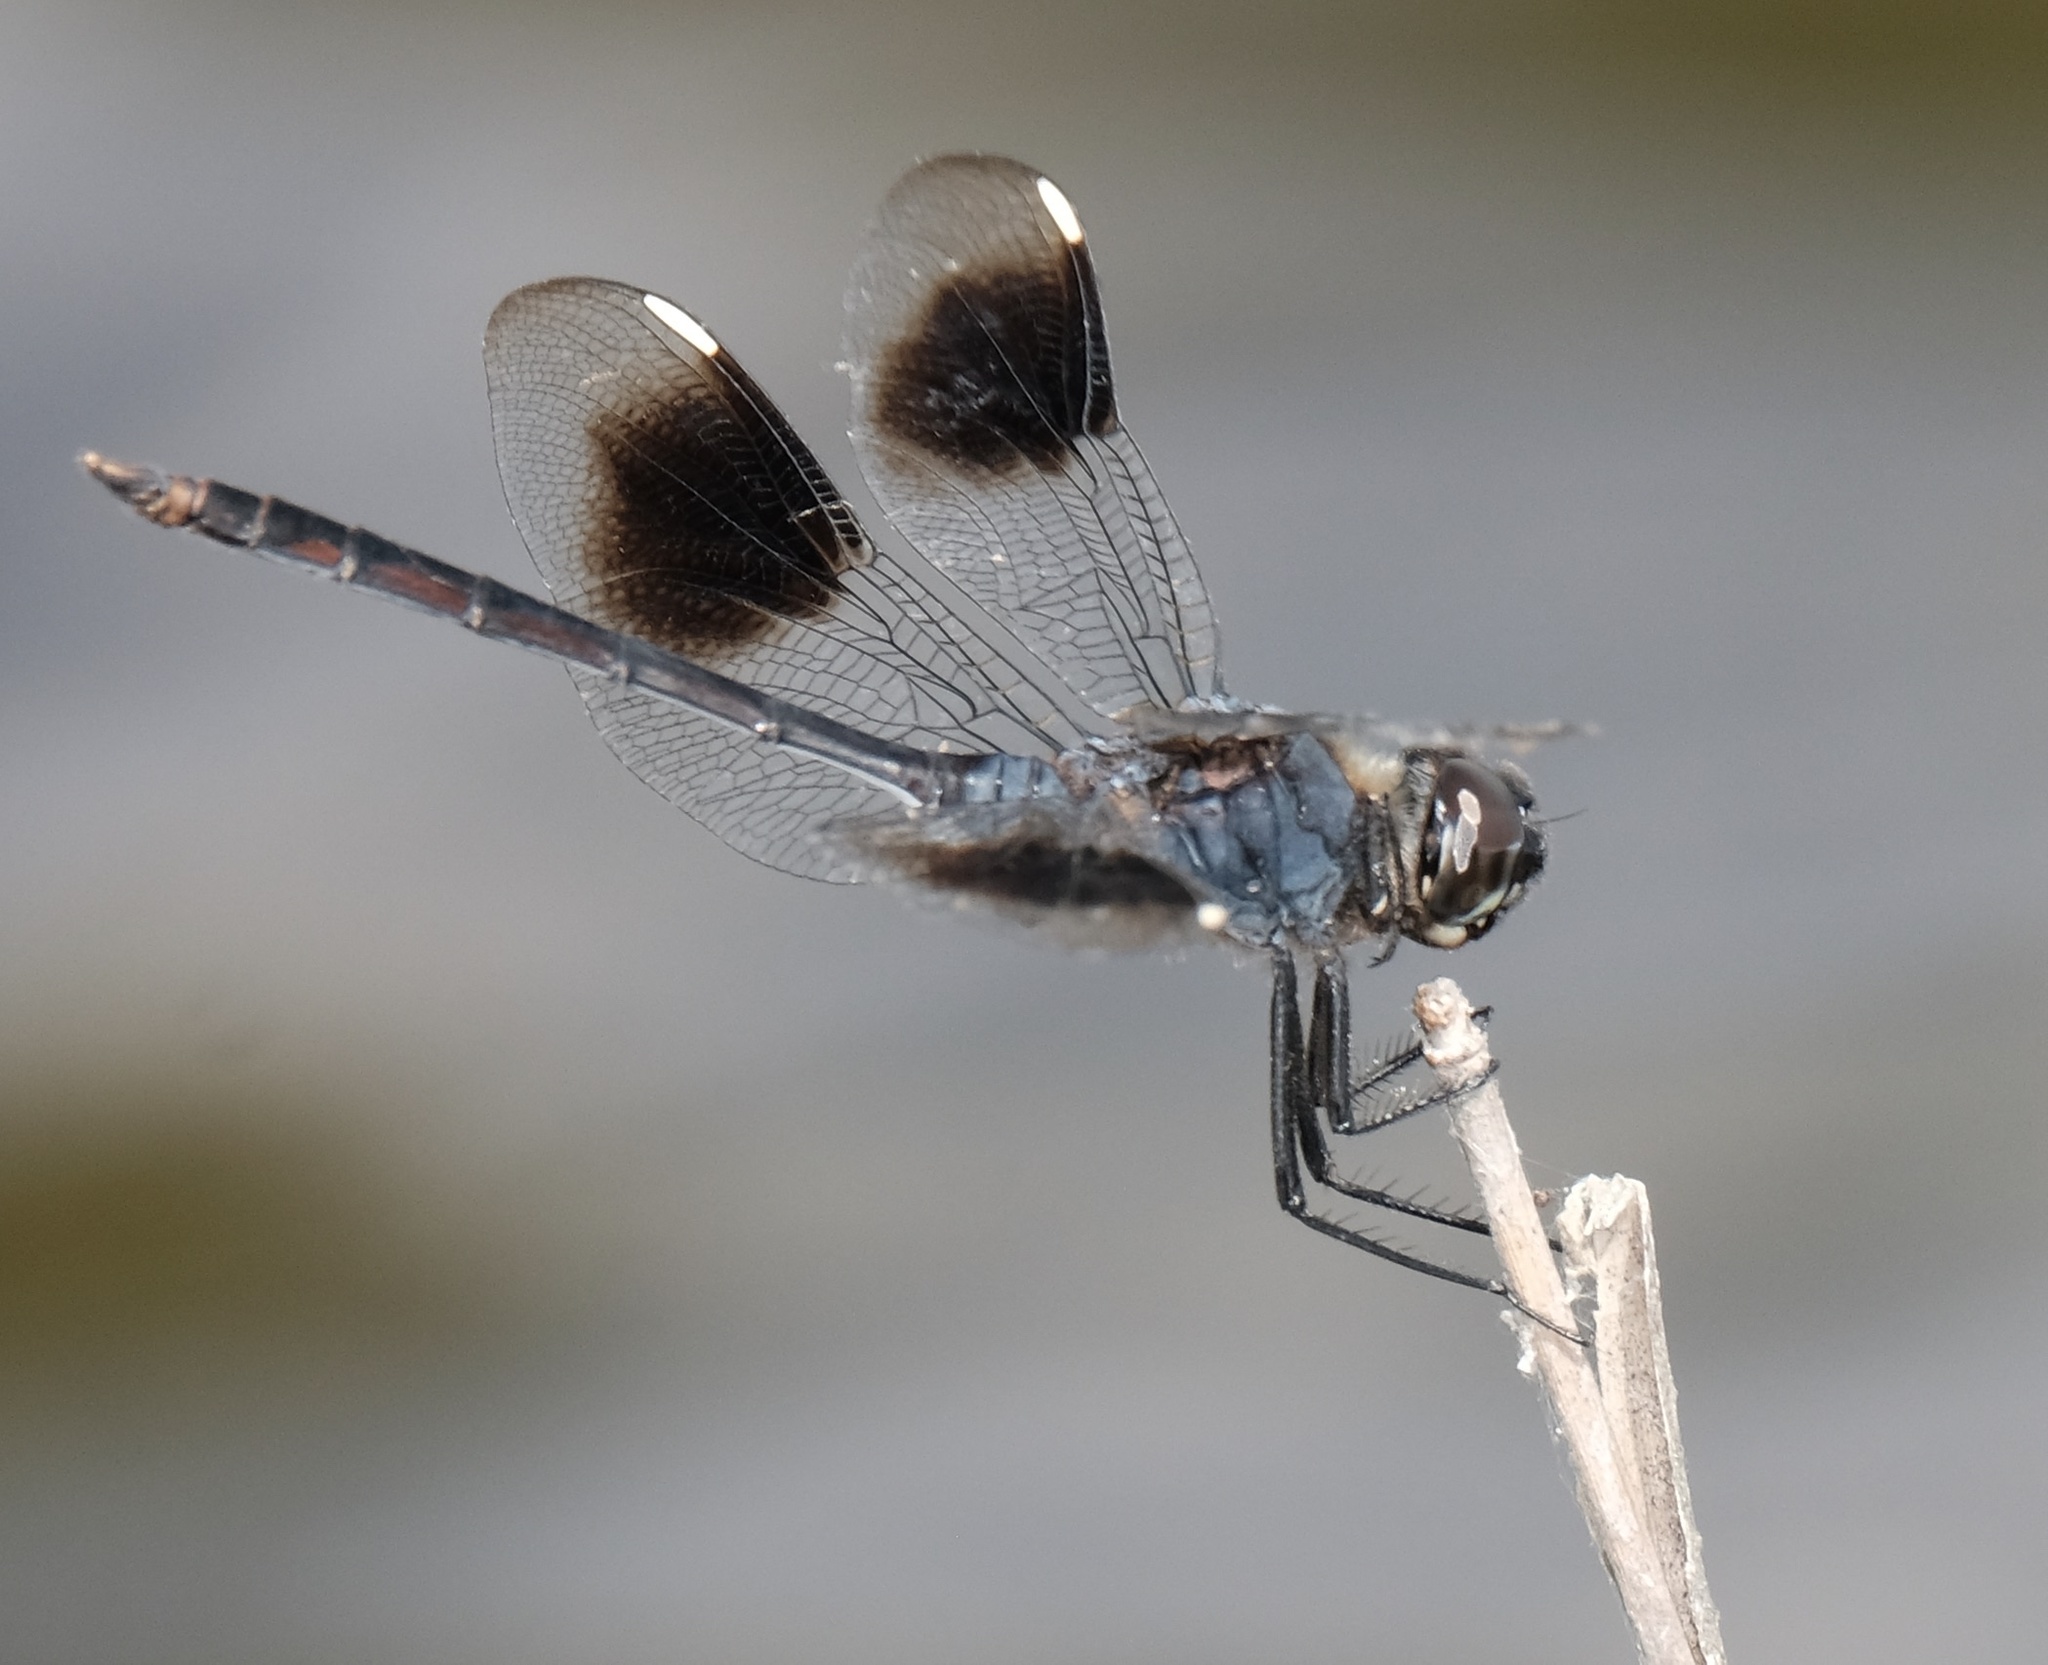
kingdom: Animalia
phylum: Arthropoda
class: Insecta
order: Odonata
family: Libellulidae
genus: Brachymesia
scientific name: Brachymesia gravida
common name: Four-spotted pennant
